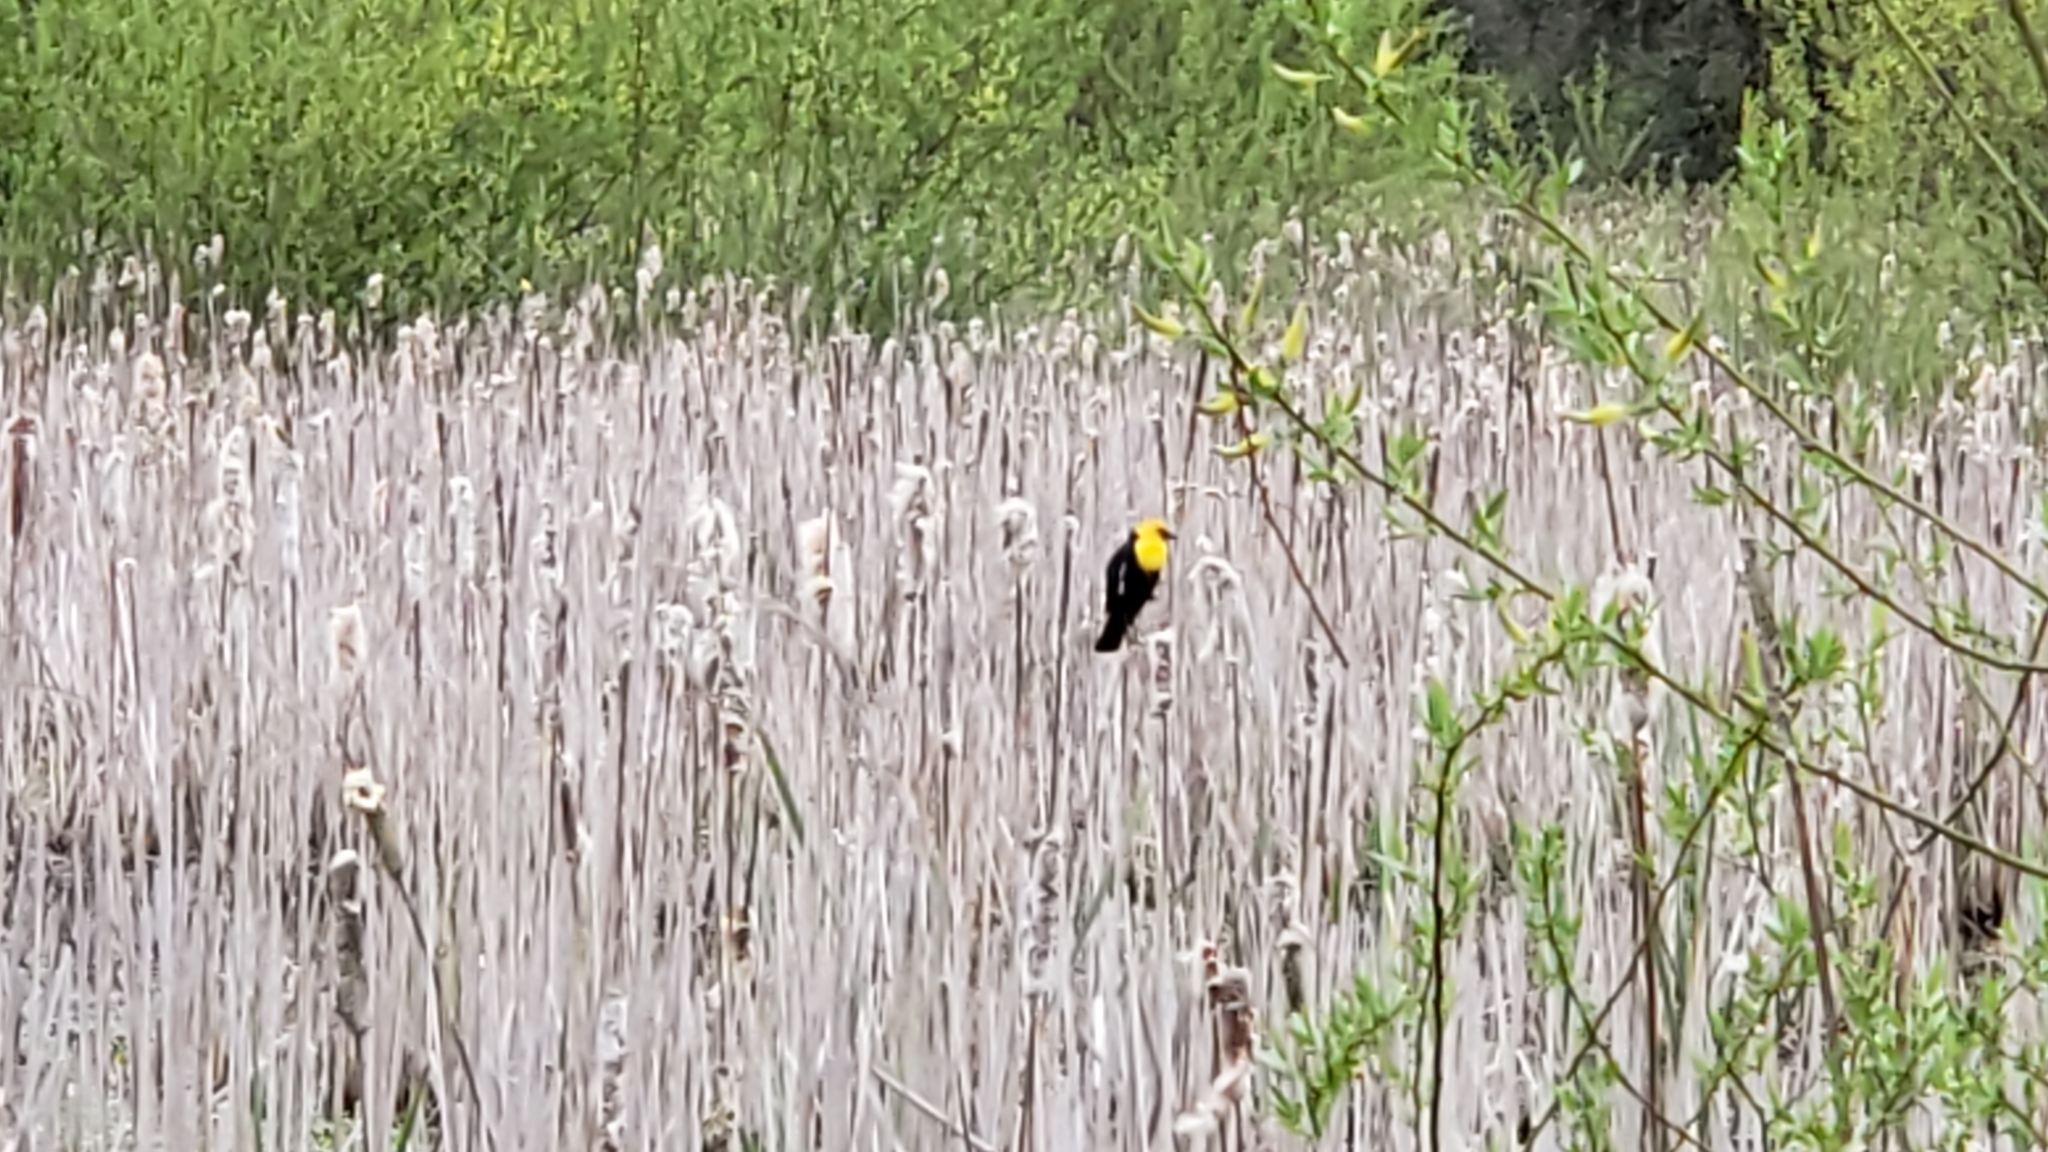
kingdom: Animalia
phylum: Chordata
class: Aves
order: Passeriformes
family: Icteridae
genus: Xanthocephalus
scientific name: Xanthocephalus xanthocephalus
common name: Yellow-headed blackbird
